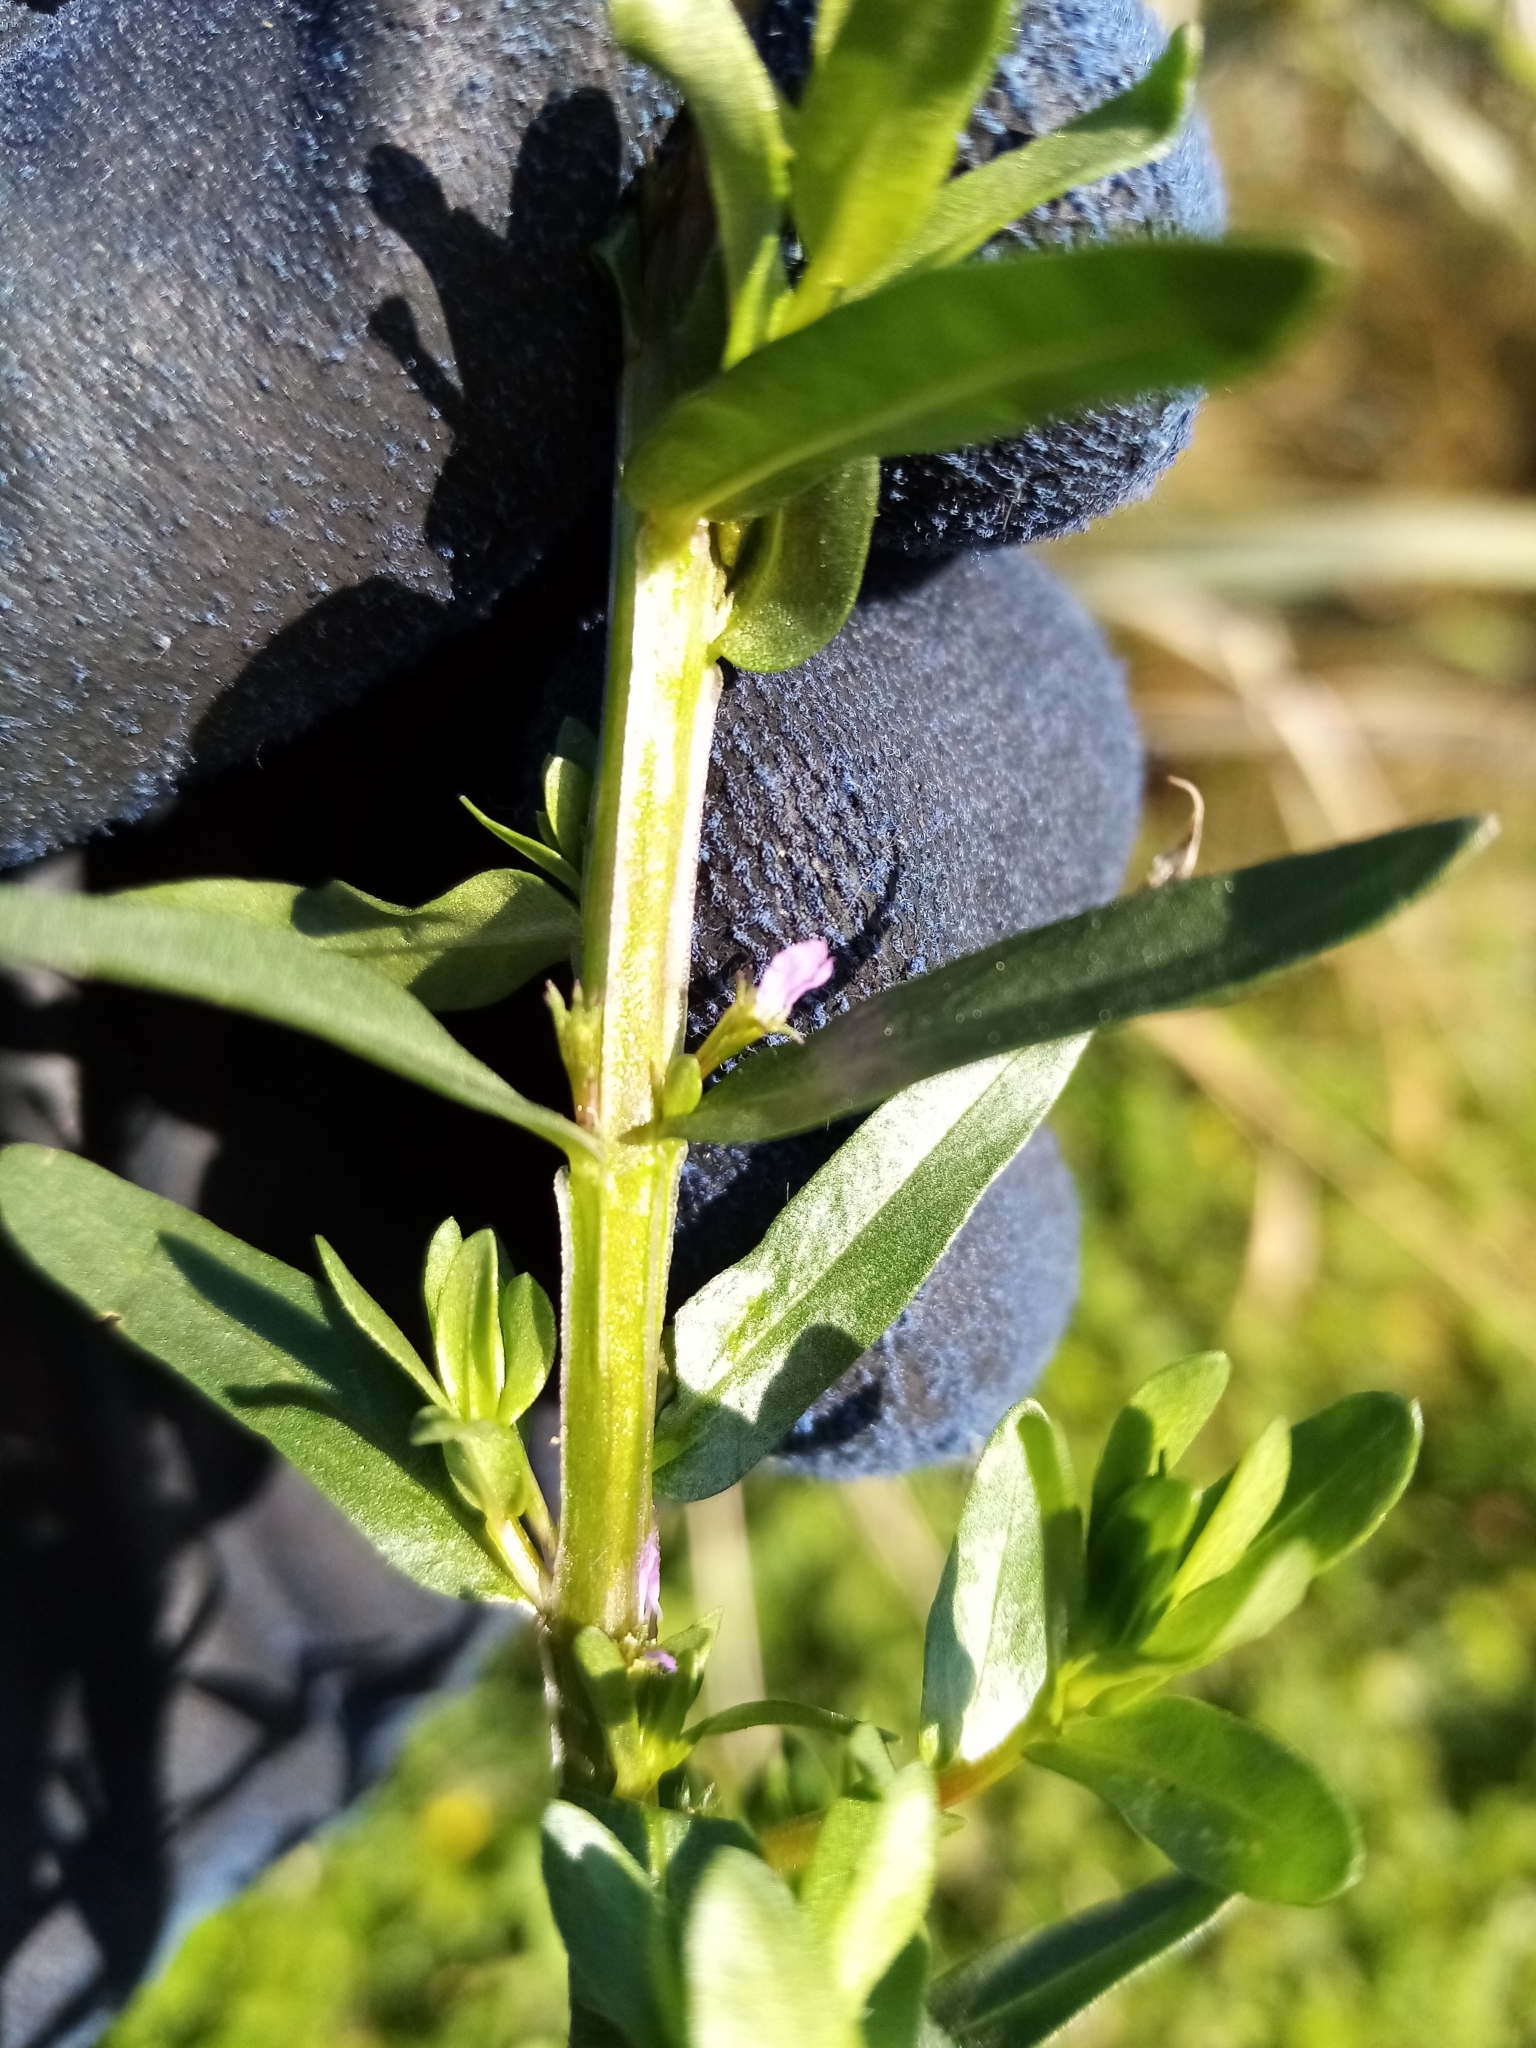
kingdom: Plantae
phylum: Tracheophyta
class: Magnoliopsida
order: Myrtales
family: Lythraceae
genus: Lythrum
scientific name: Lythrum hyssopifolia
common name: Grass-poly
